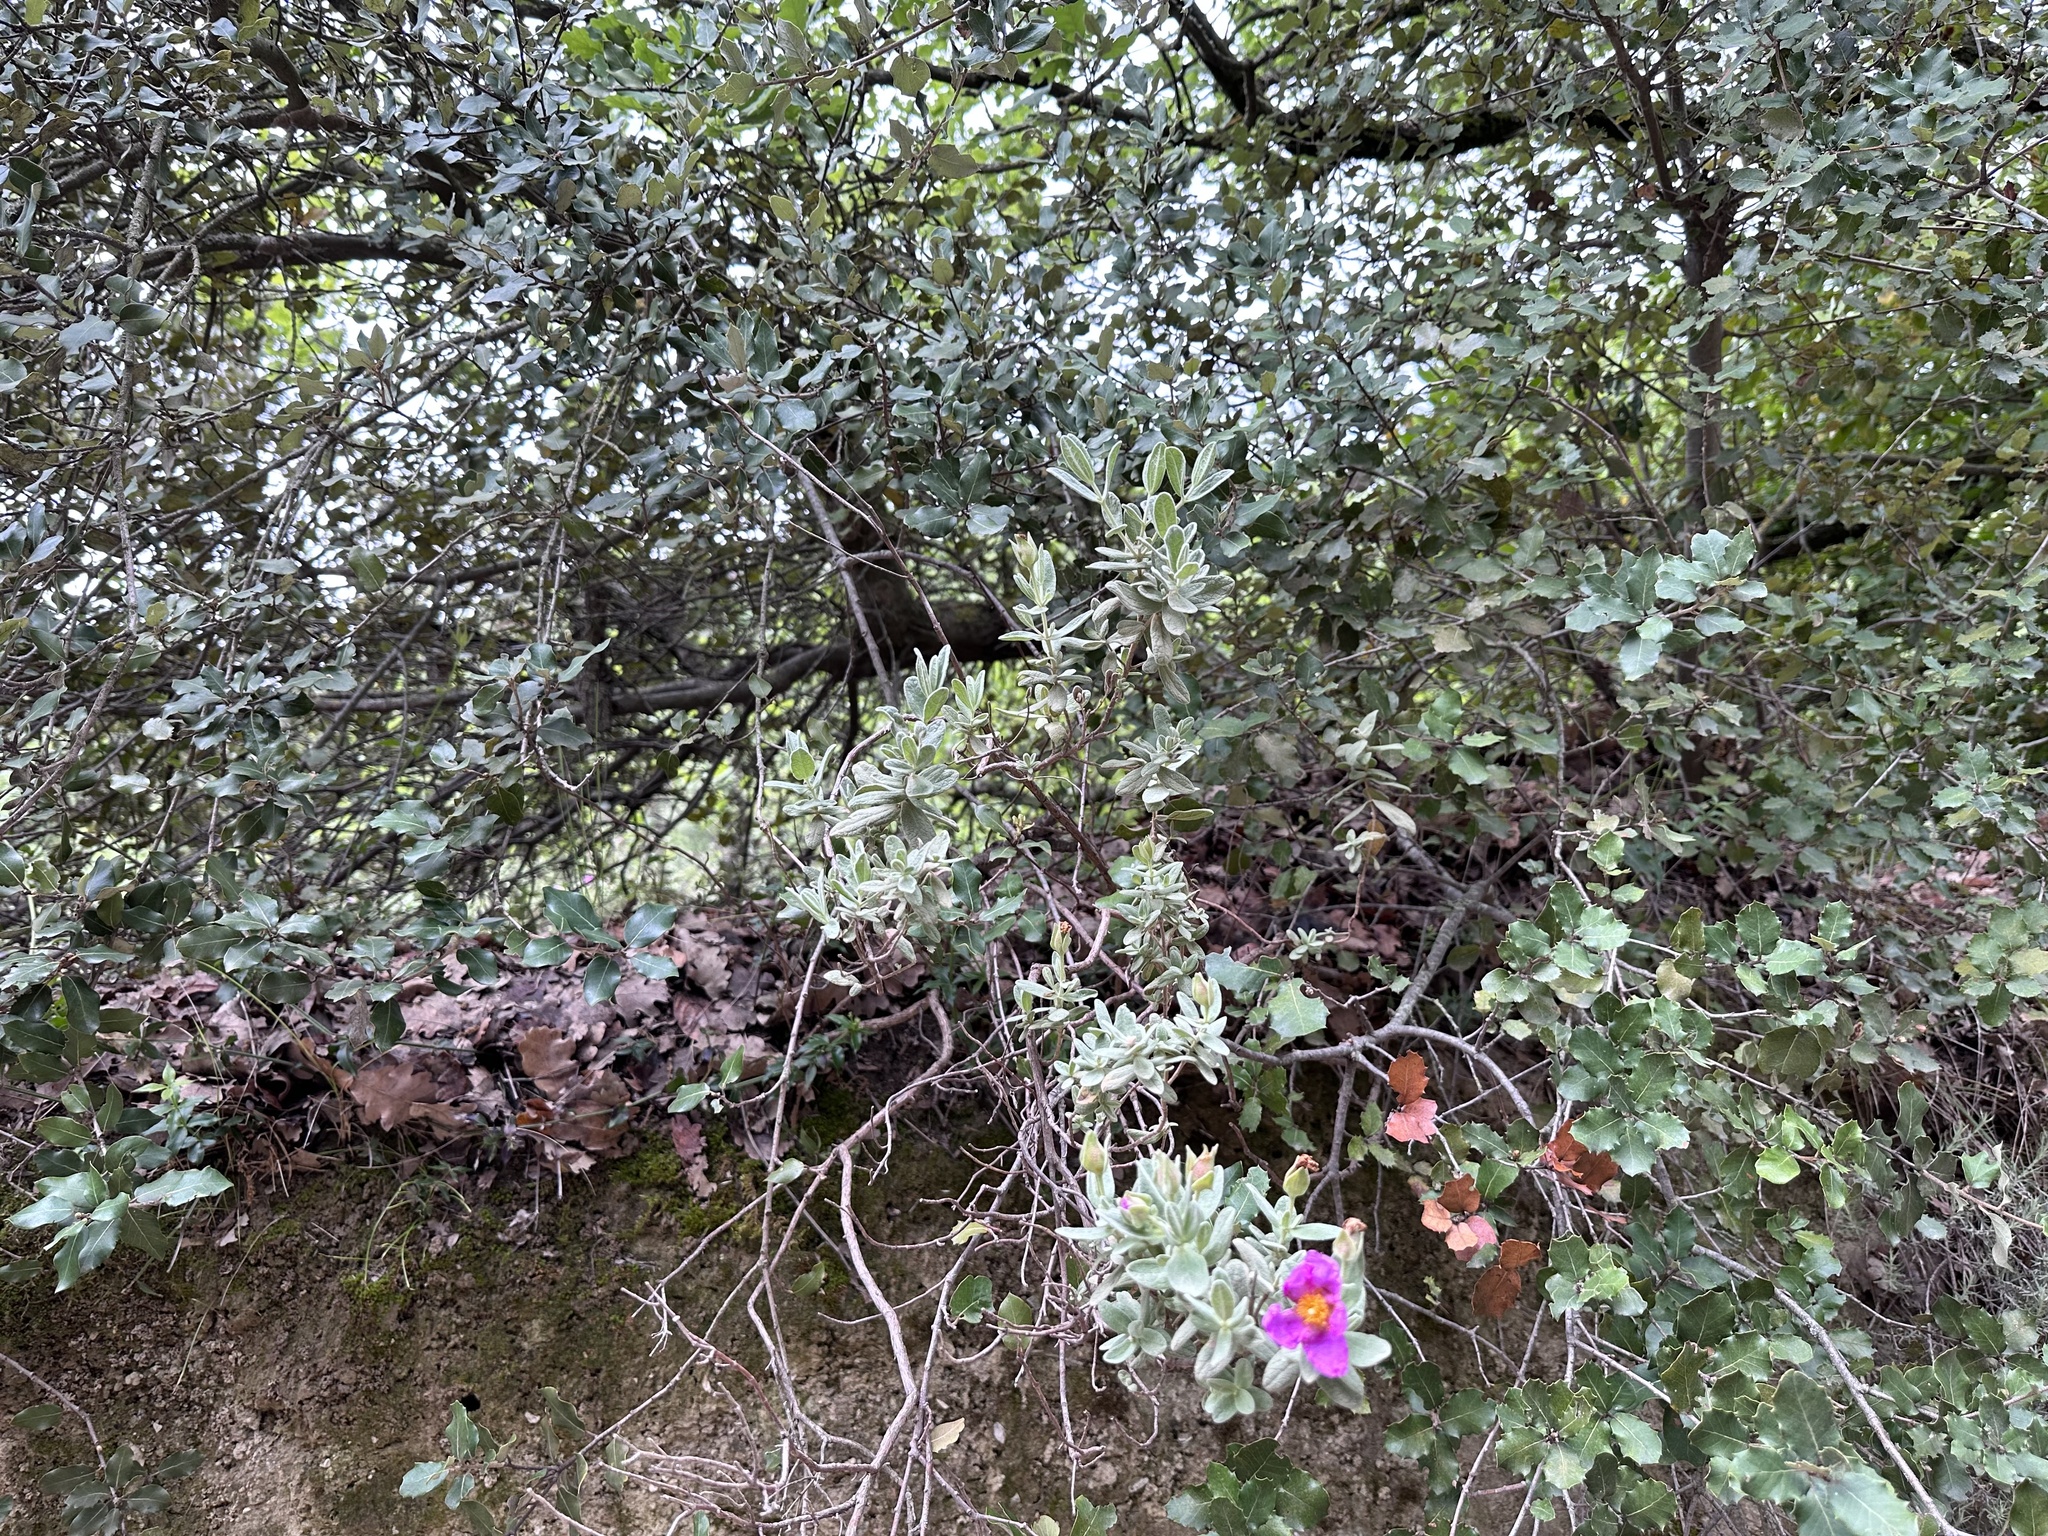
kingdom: Plantae
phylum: Tracheophyta
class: Magnoliopsida
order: Malvales
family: Cistaceae
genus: Cistus
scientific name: Cistus albidus
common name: White-leaf rock-rose
